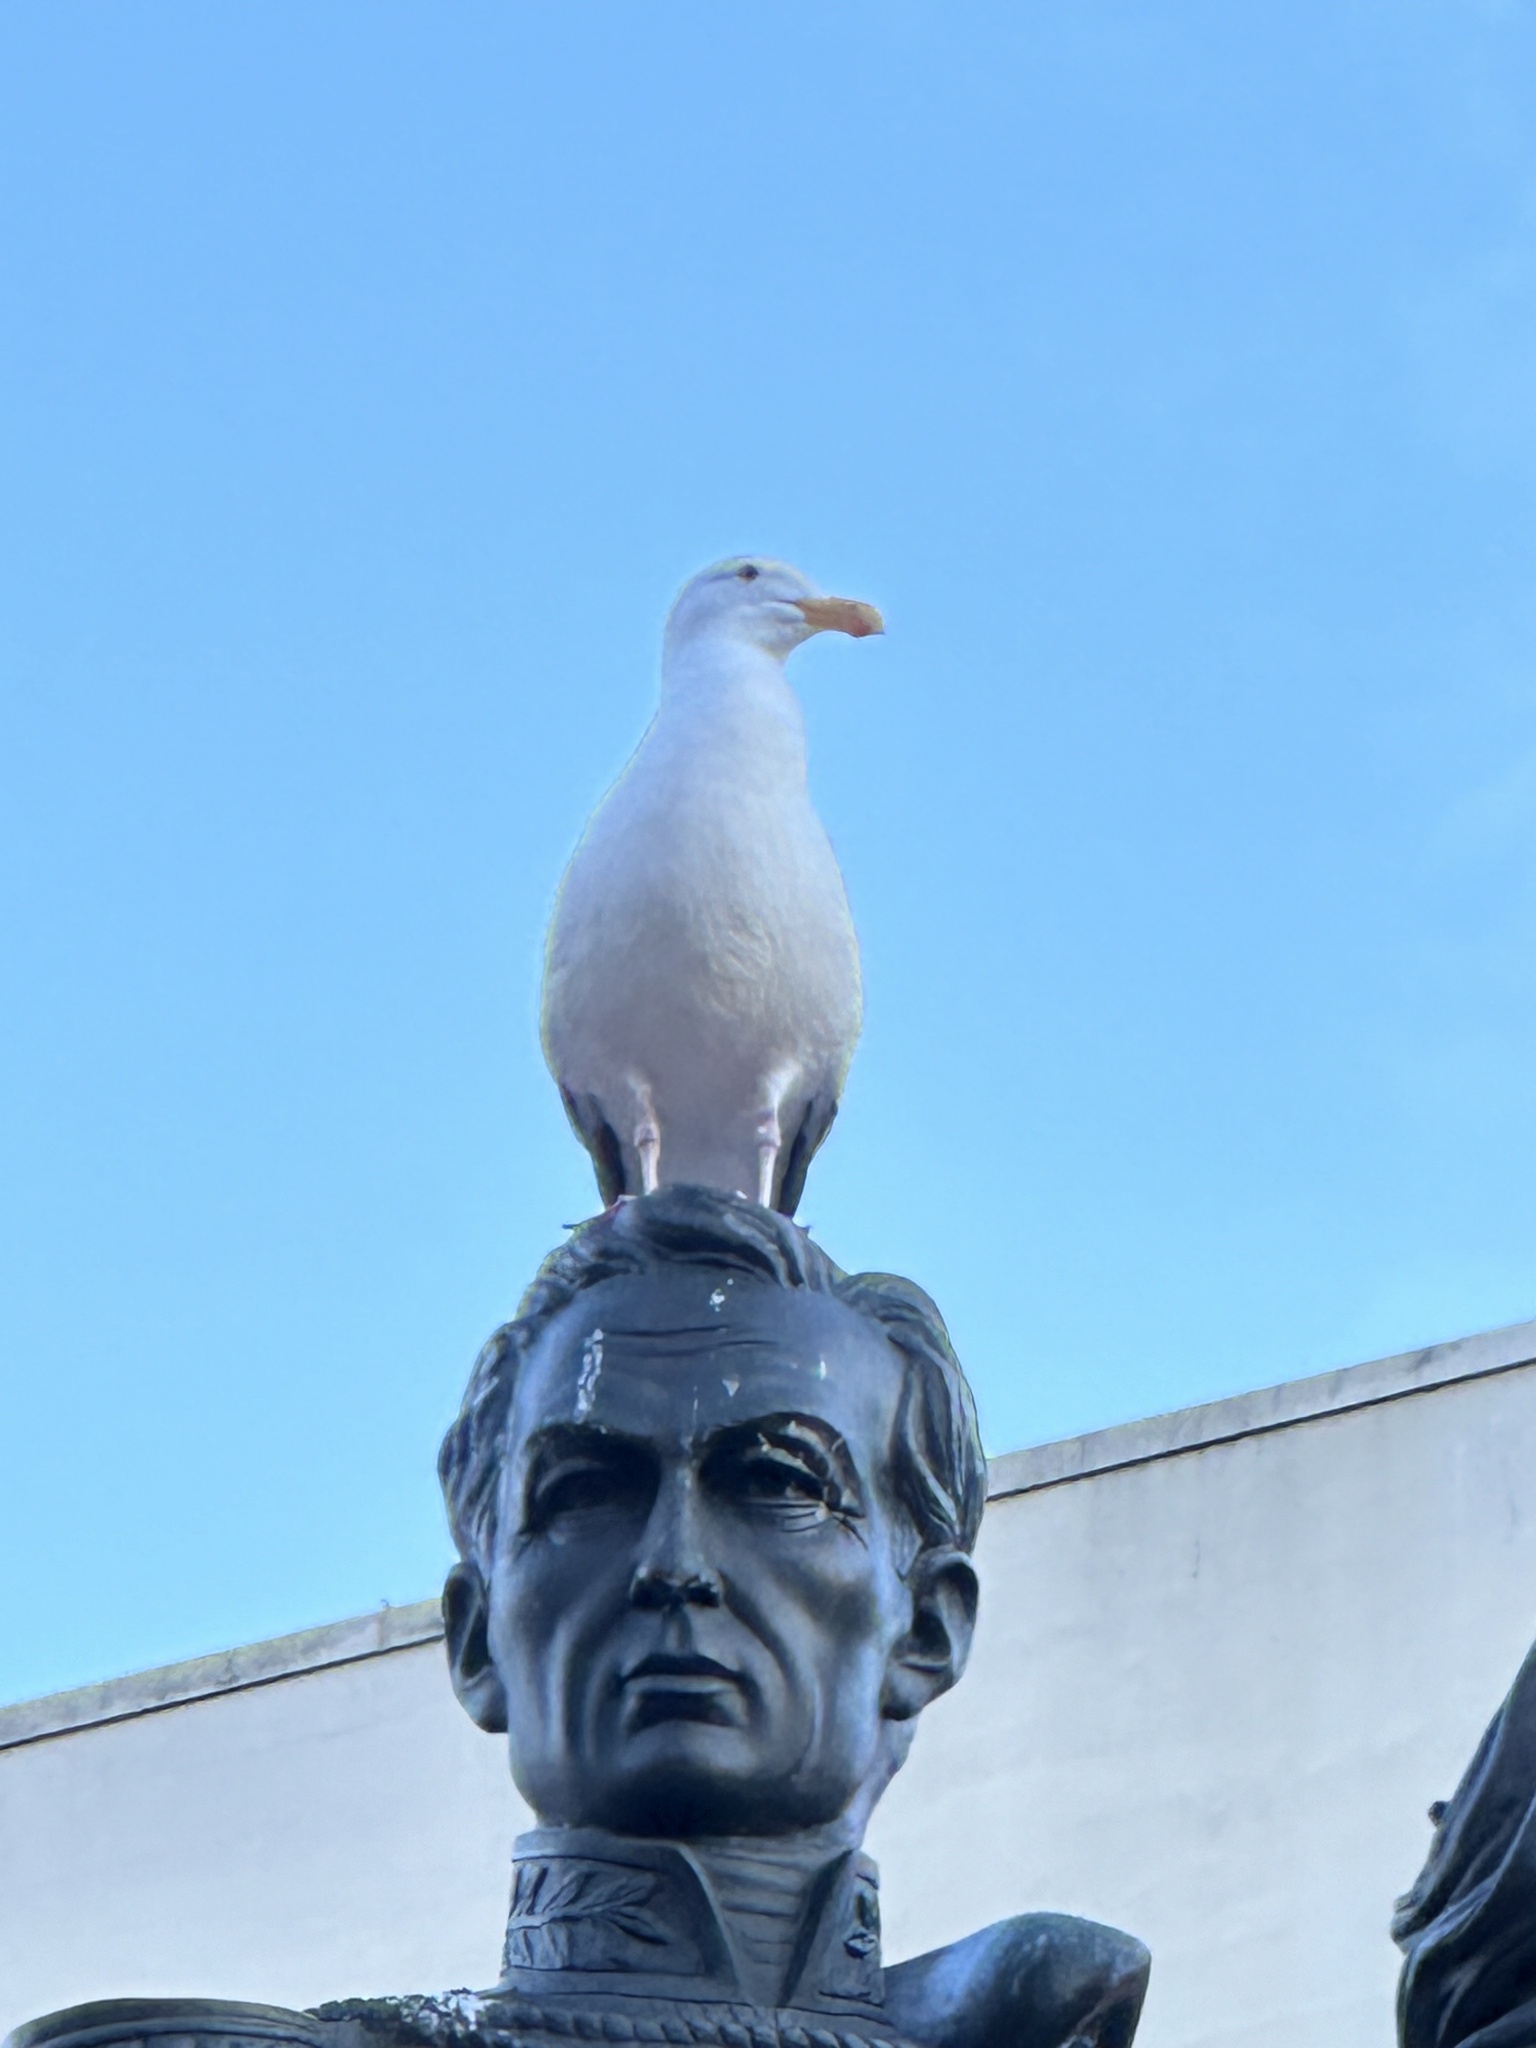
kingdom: Animalia
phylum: Chordata
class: Aves
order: Charadriiformes
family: Laridae
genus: Larus
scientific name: Larus occidentalis
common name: Western gull
